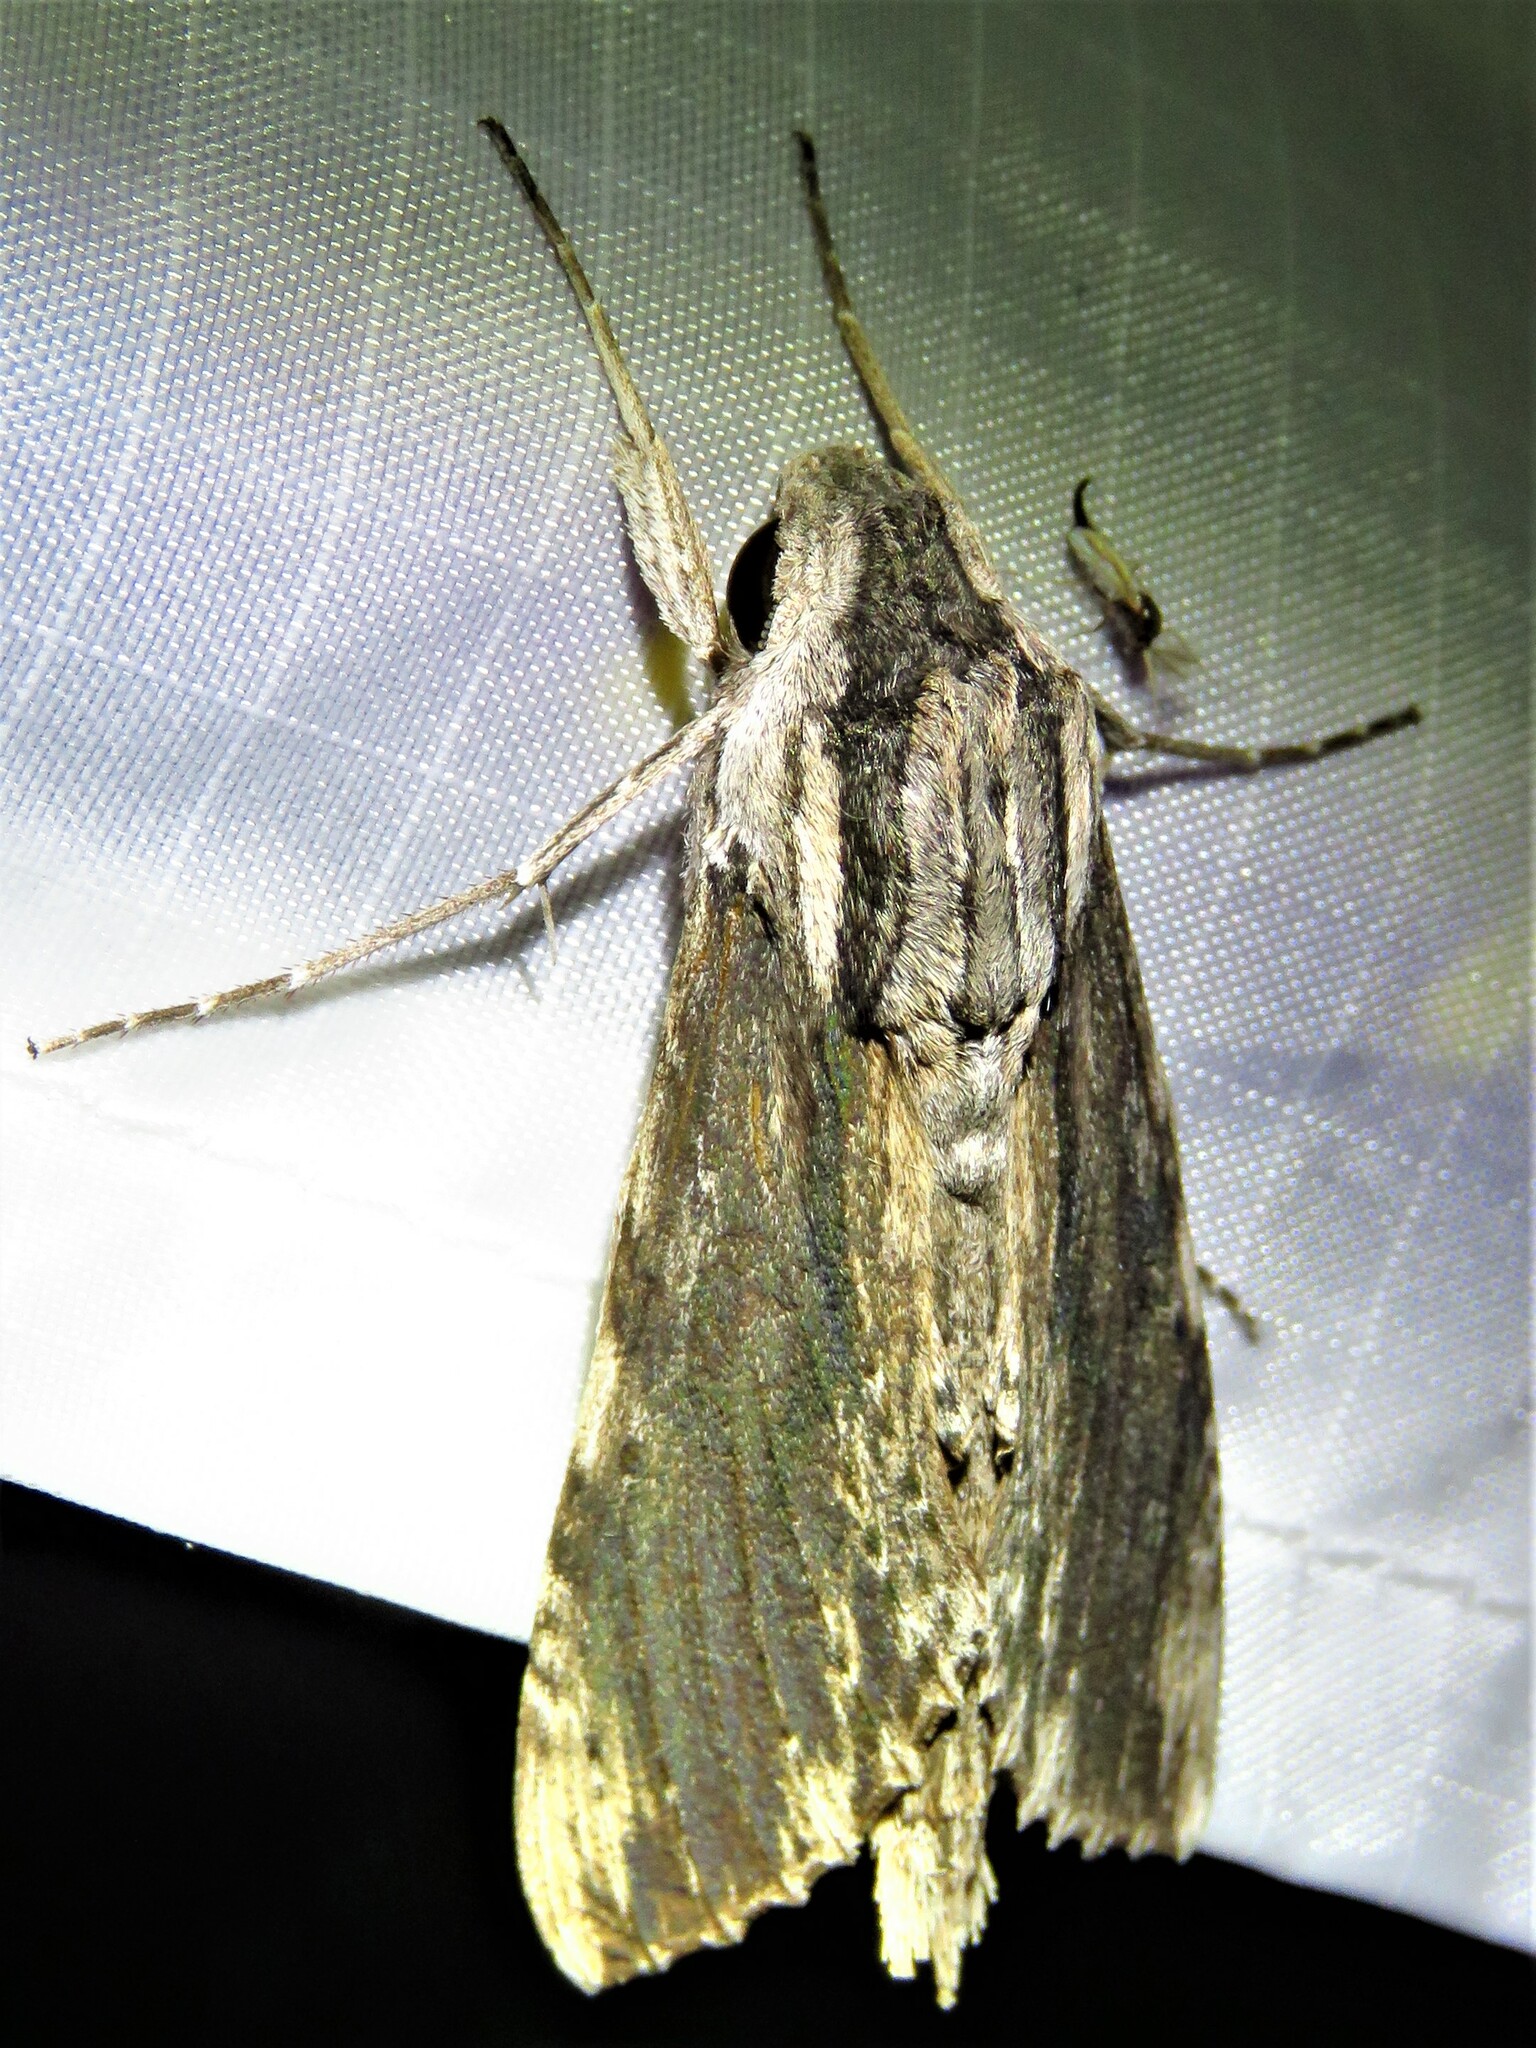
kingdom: Animalia
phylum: Arthropoda
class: Insecta
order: Lepidoptera
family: Sphingidae
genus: Erinnyis
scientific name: Erinnyis obscura
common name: Obscure sphinx
